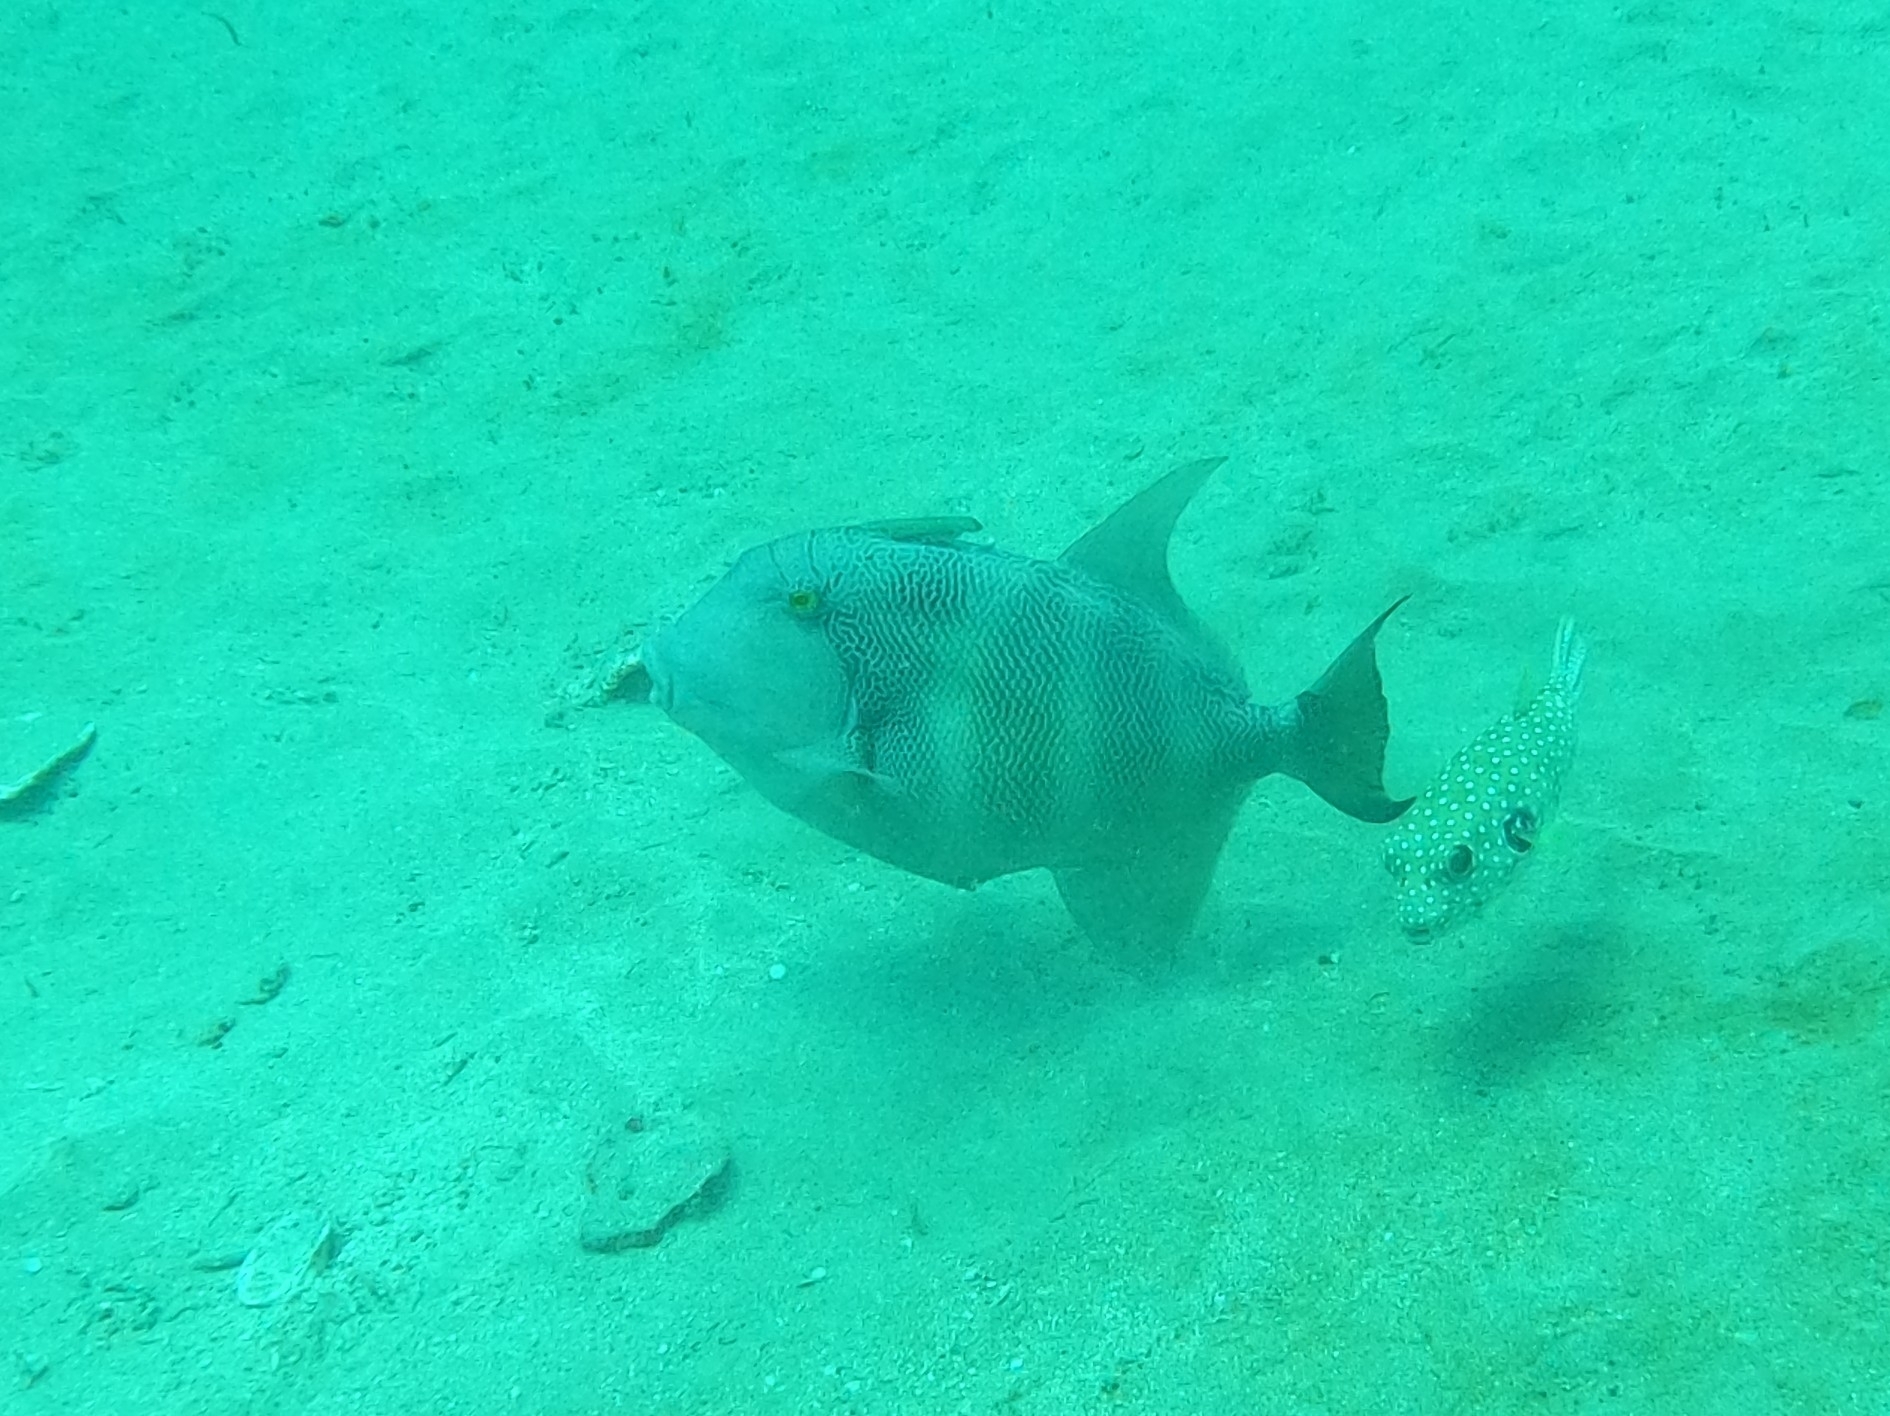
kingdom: Animalia
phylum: Chordata
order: Tetraodontiformes
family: Balistidae
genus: Pseudobalistes
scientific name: Pseudobalistes naufragium
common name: Blunthead triggerfish
